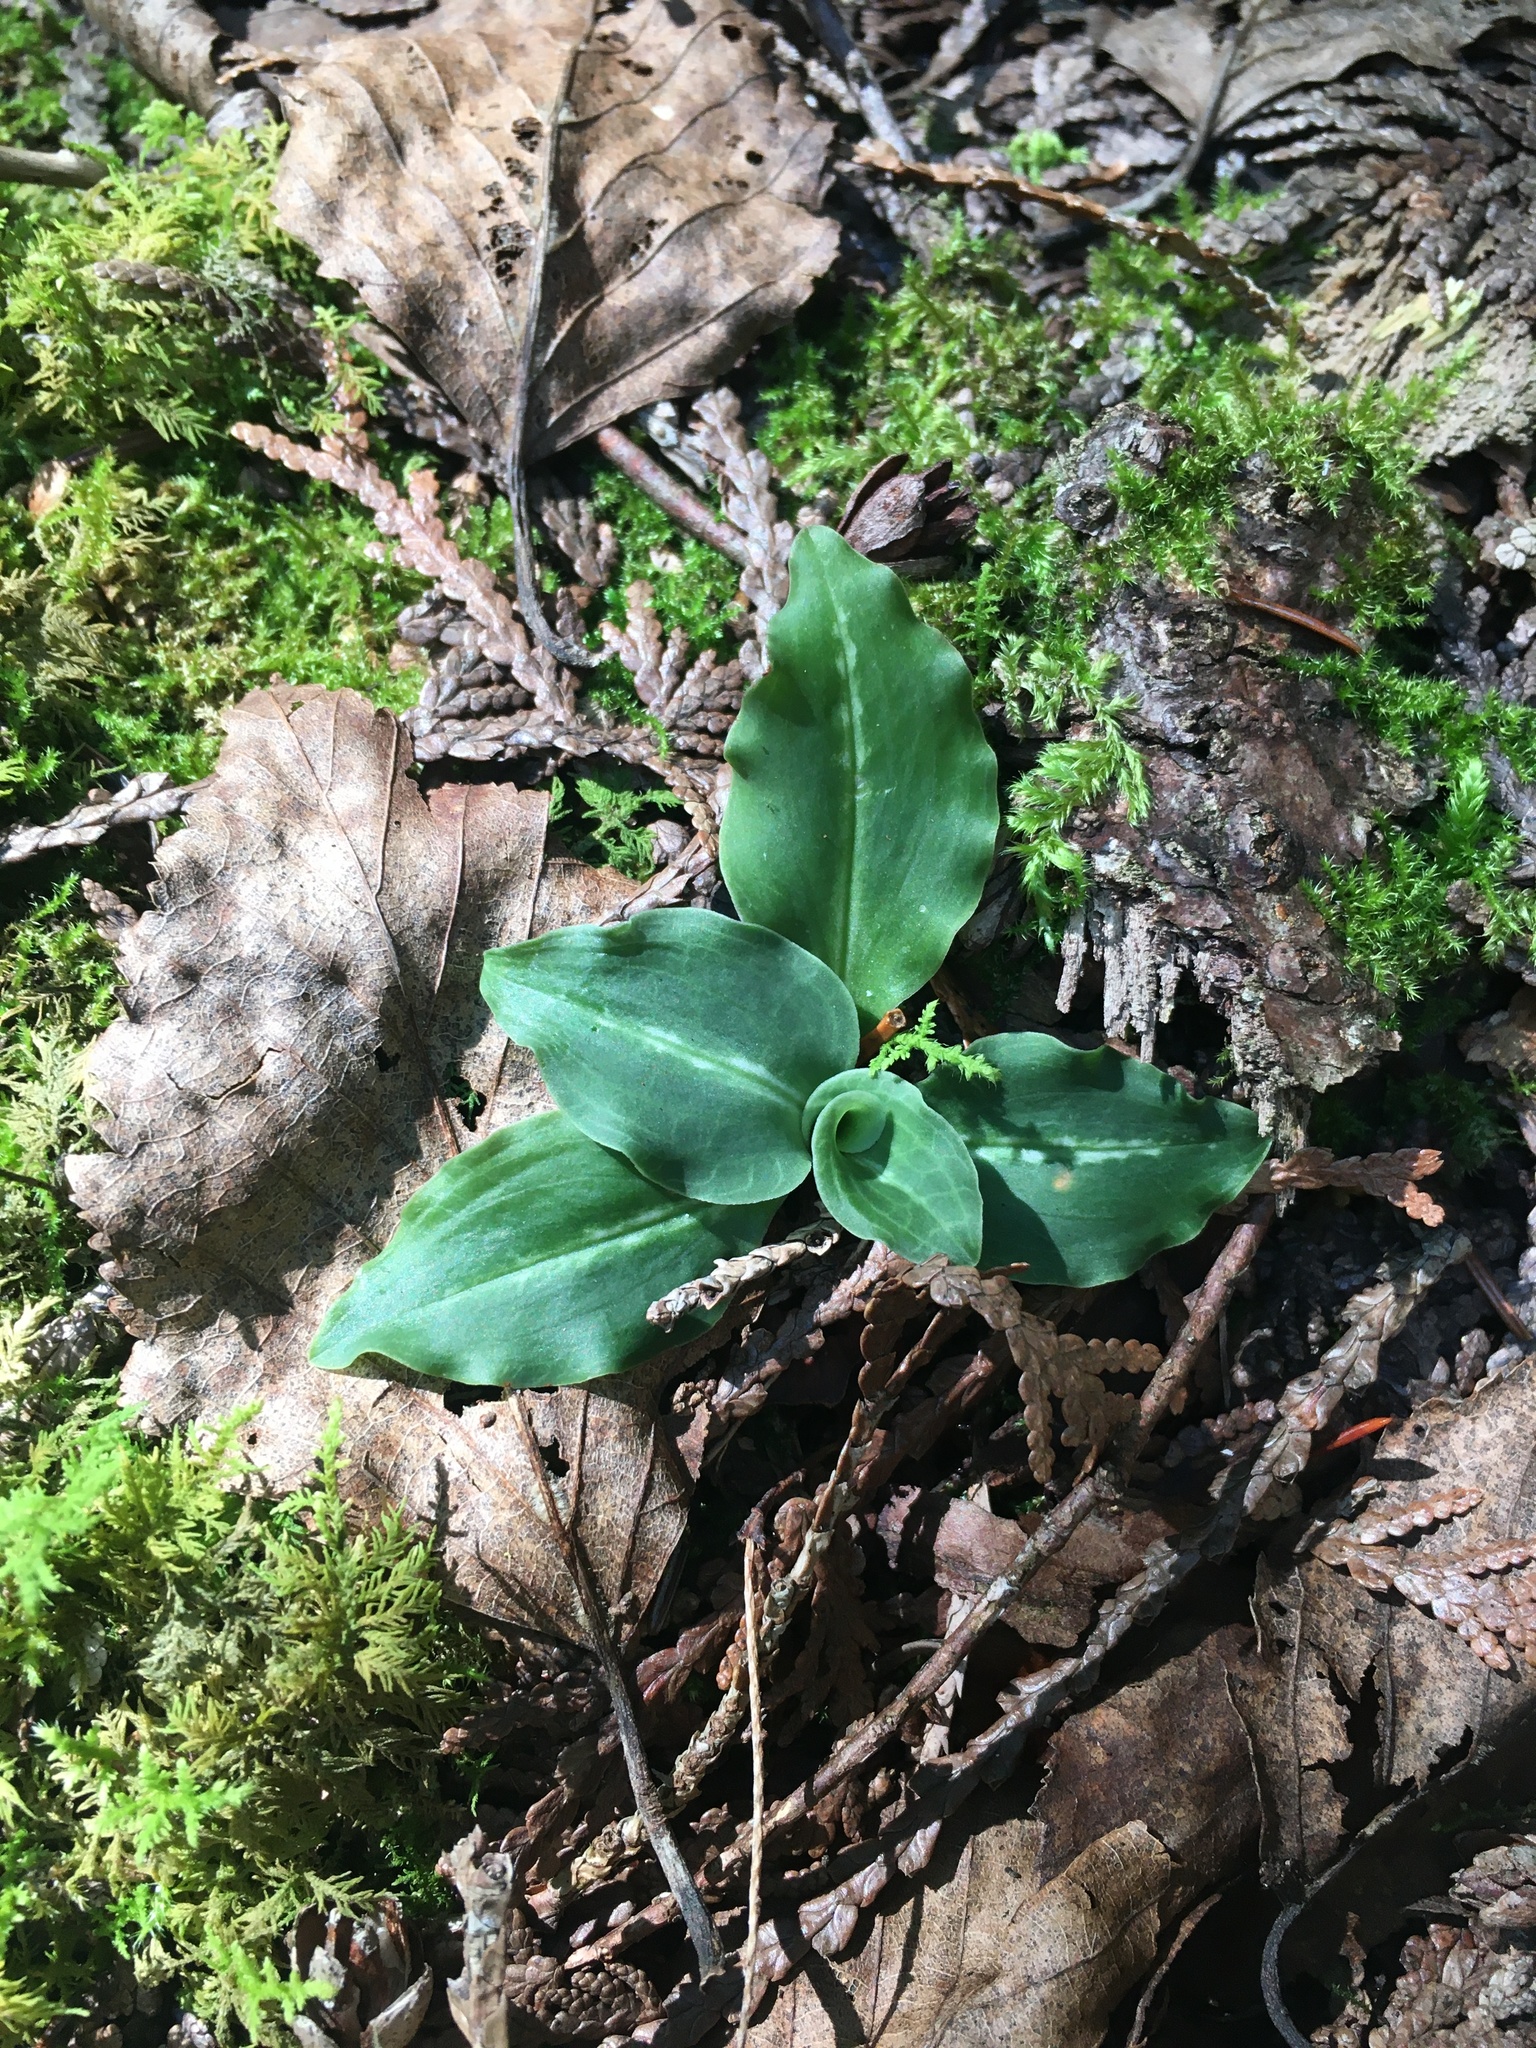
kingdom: Plantae
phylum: Tracheophyta
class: Liliopsida
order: Asparagales
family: Orchidaceae
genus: Goodyera
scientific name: Goodyera oblongifolia
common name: Giant rattlesnake-plantain
